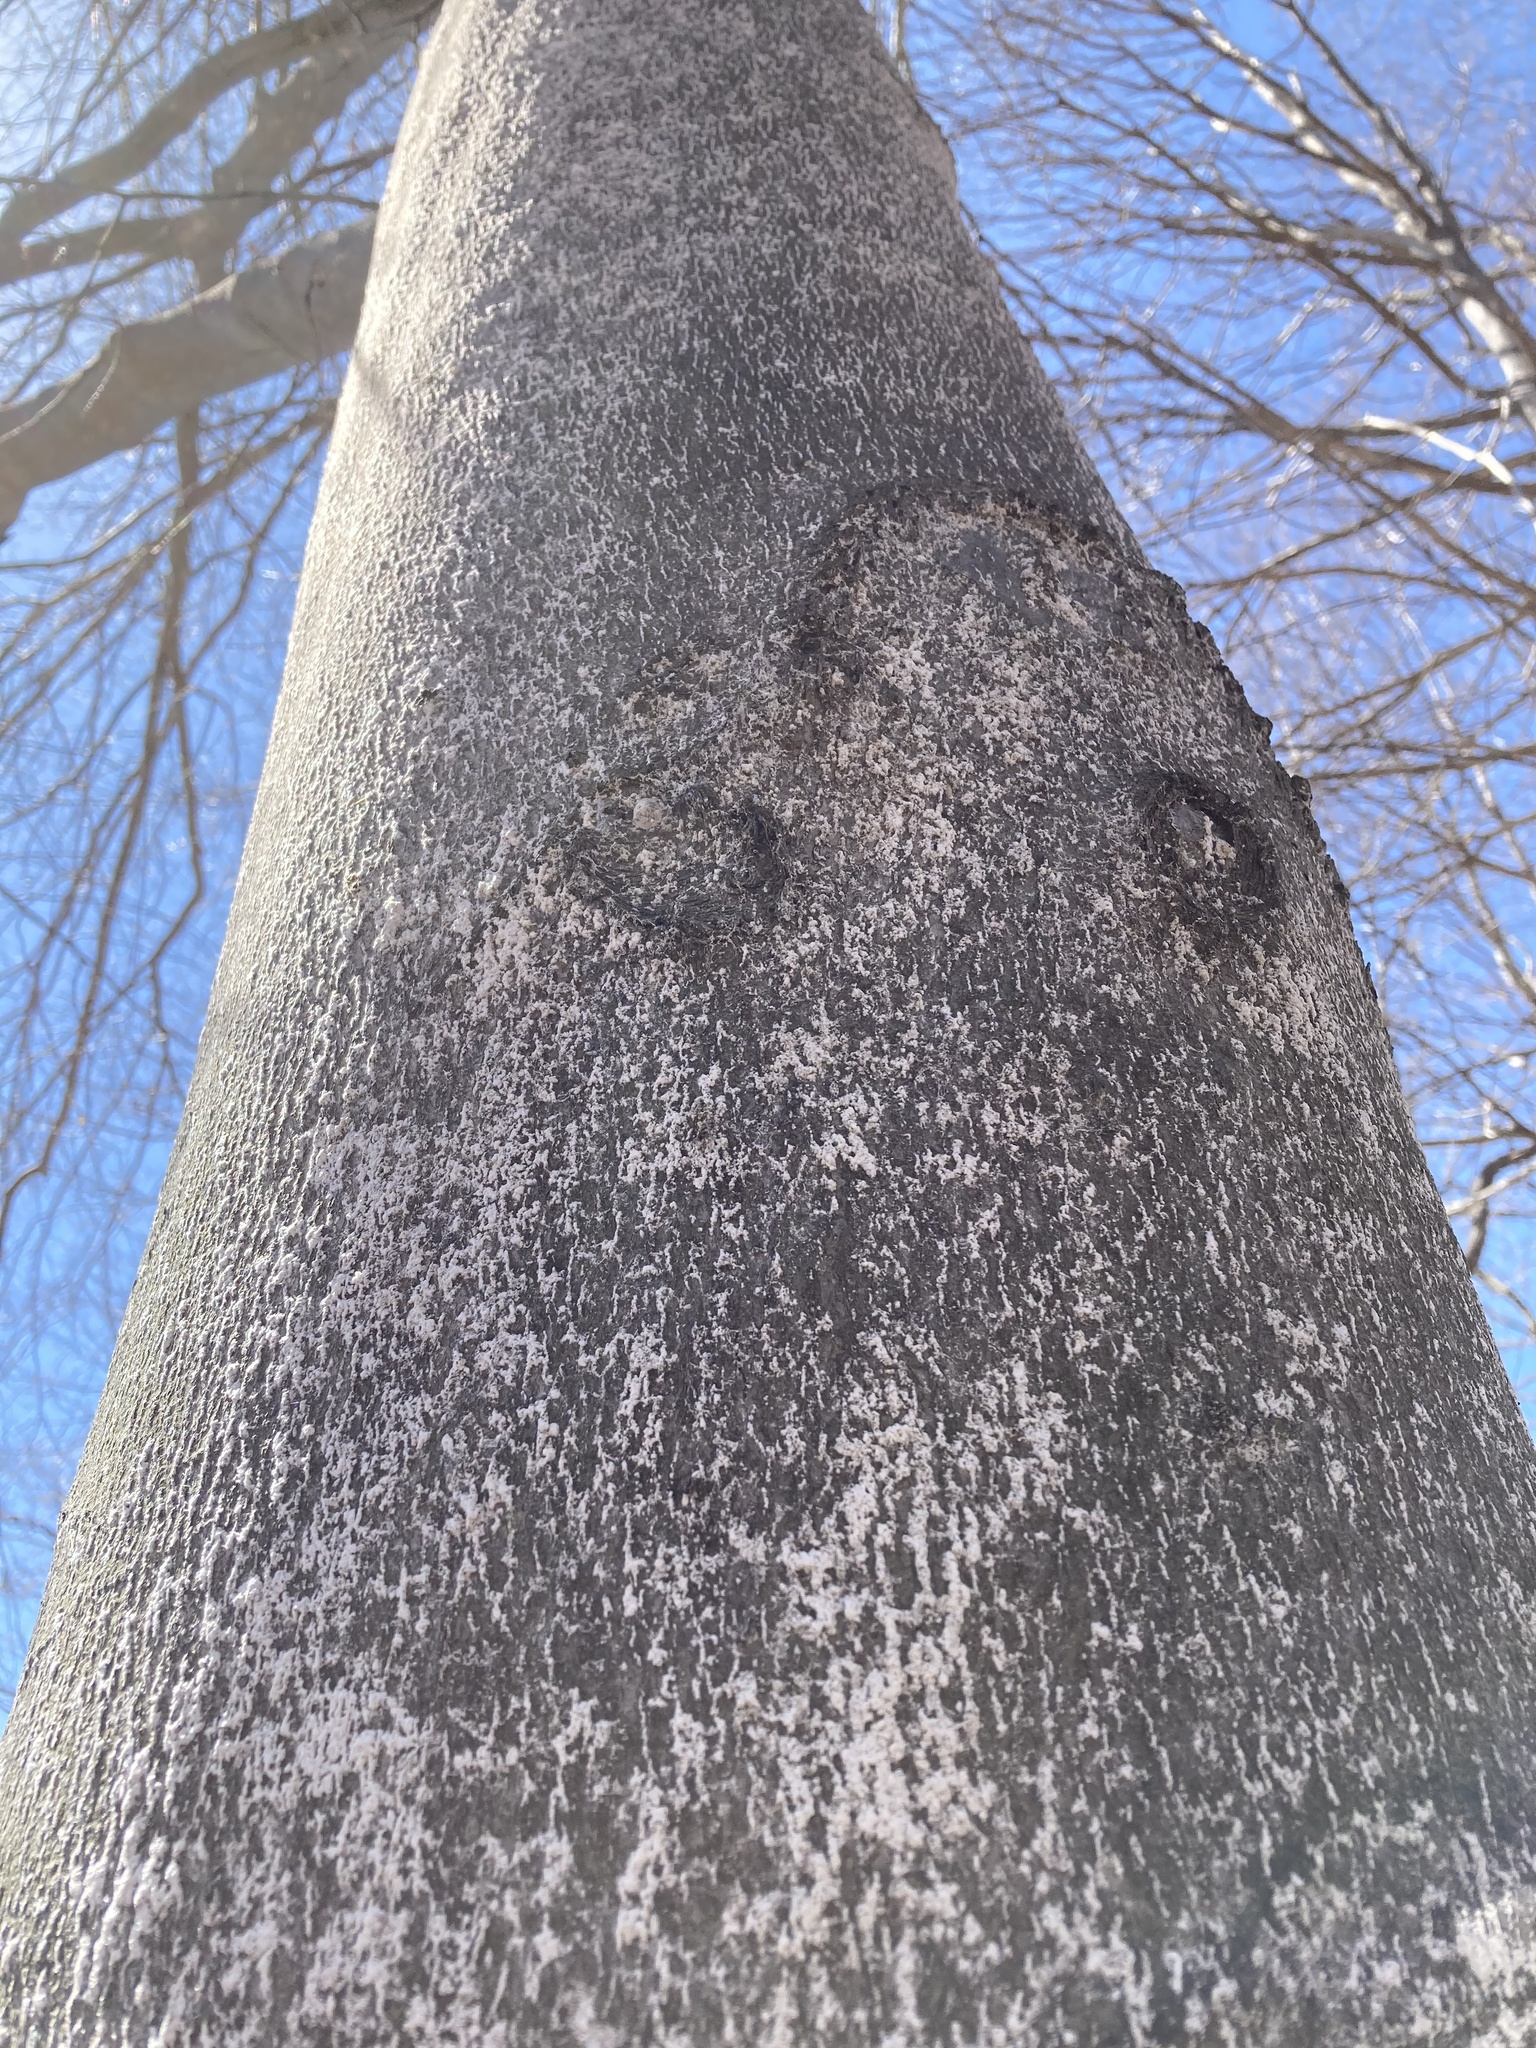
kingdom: Animalia
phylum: Arthropoda
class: Insecta
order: Hemiptera
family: Eriococcidae
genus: Cryptococcus
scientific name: Cryptococcus fagisuga
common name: Beech scale
